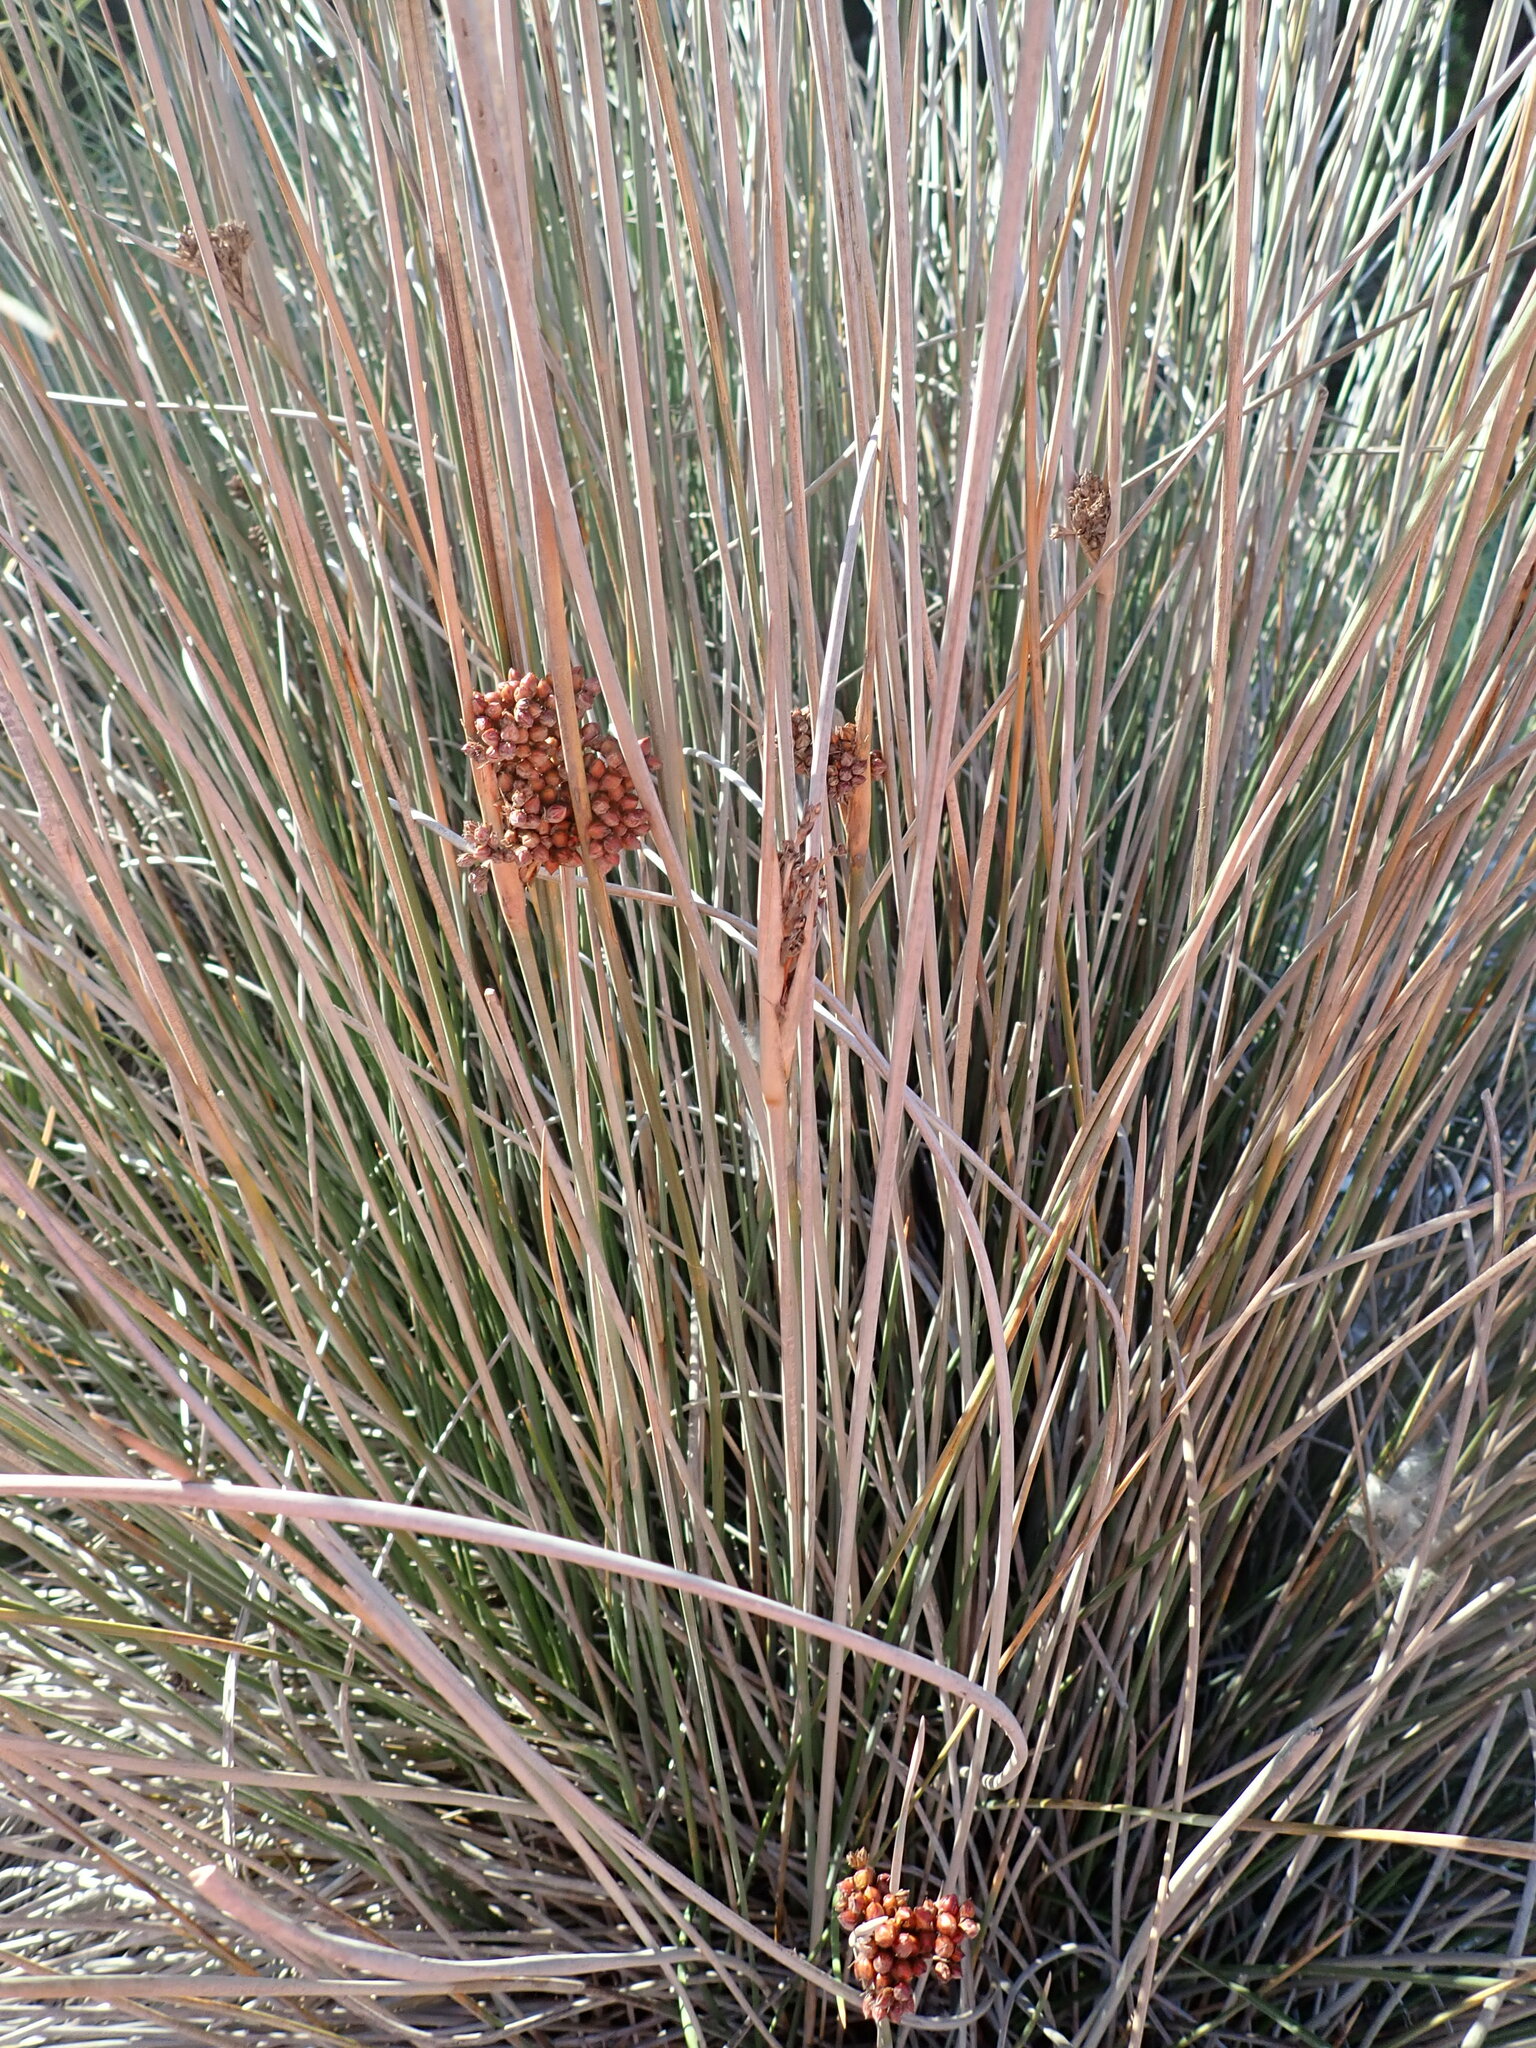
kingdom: Plantae
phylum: Tracheophyta
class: Liliopsida
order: Poales
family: Juncaceae
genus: Juncus
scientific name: Juncus acutus
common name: Sharp rush
